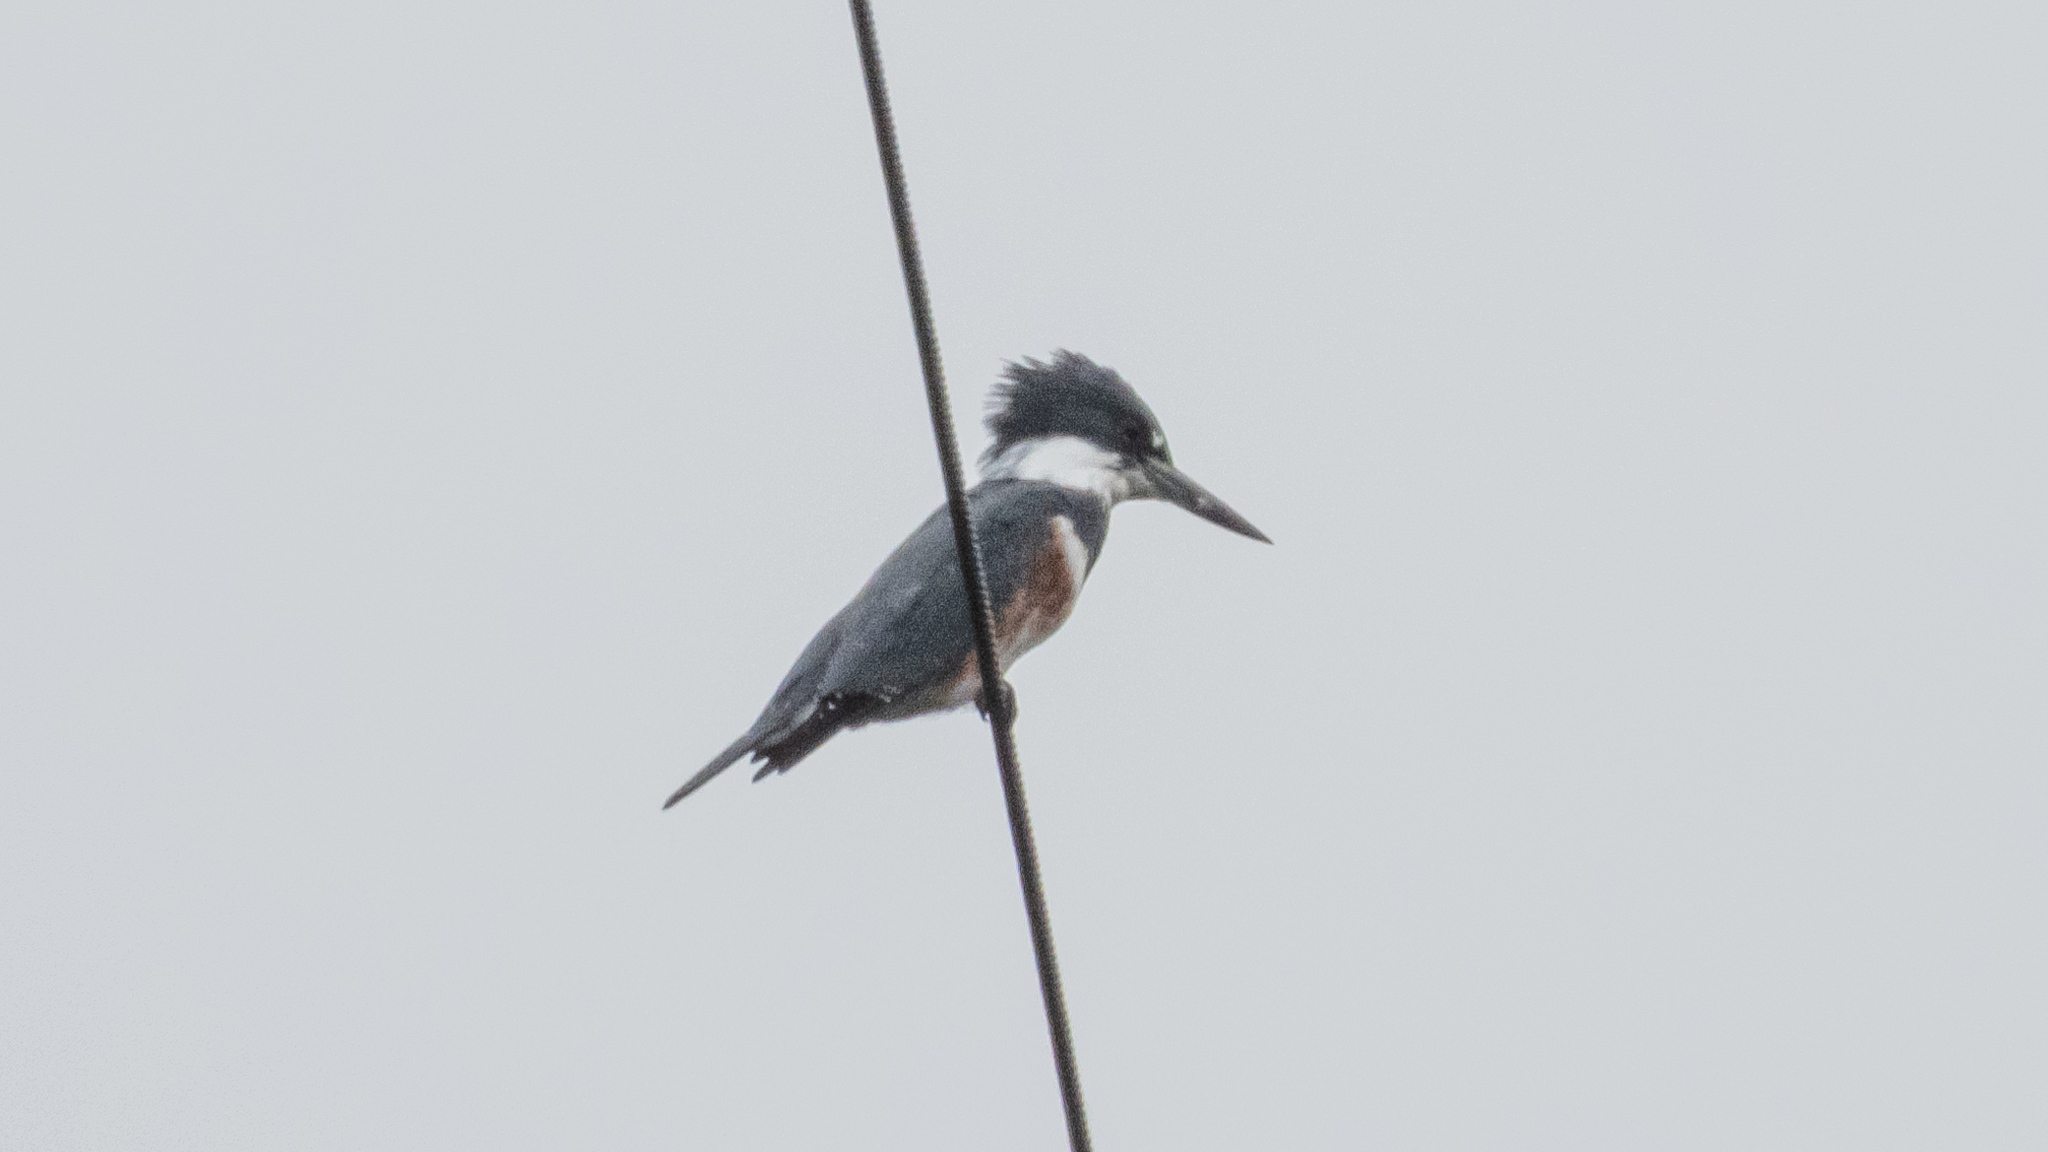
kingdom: Animalia
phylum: Chordata
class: Aves
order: Coraciiformes
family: Alcedinidae
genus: Megaceryle
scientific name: Megaceryle alcyon
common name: Belted kingfisher
